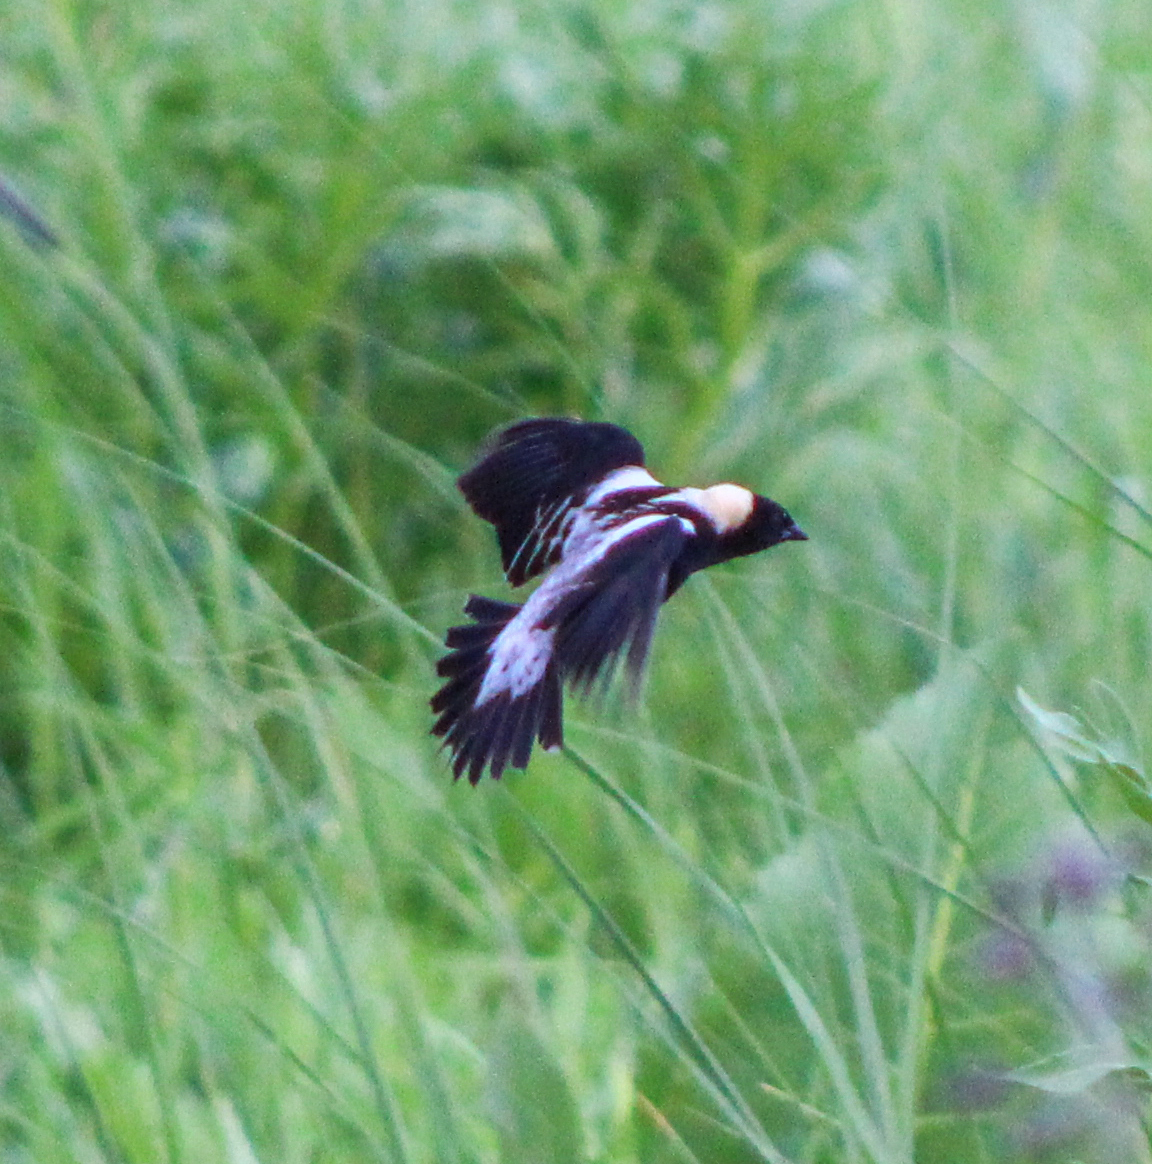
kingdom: Animalia
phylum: Chordata
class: Aves
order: Passeriformes
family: Icteridae
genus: Dolichonyx
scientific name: Dolichonyx oryzivorus
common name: Bobolink
